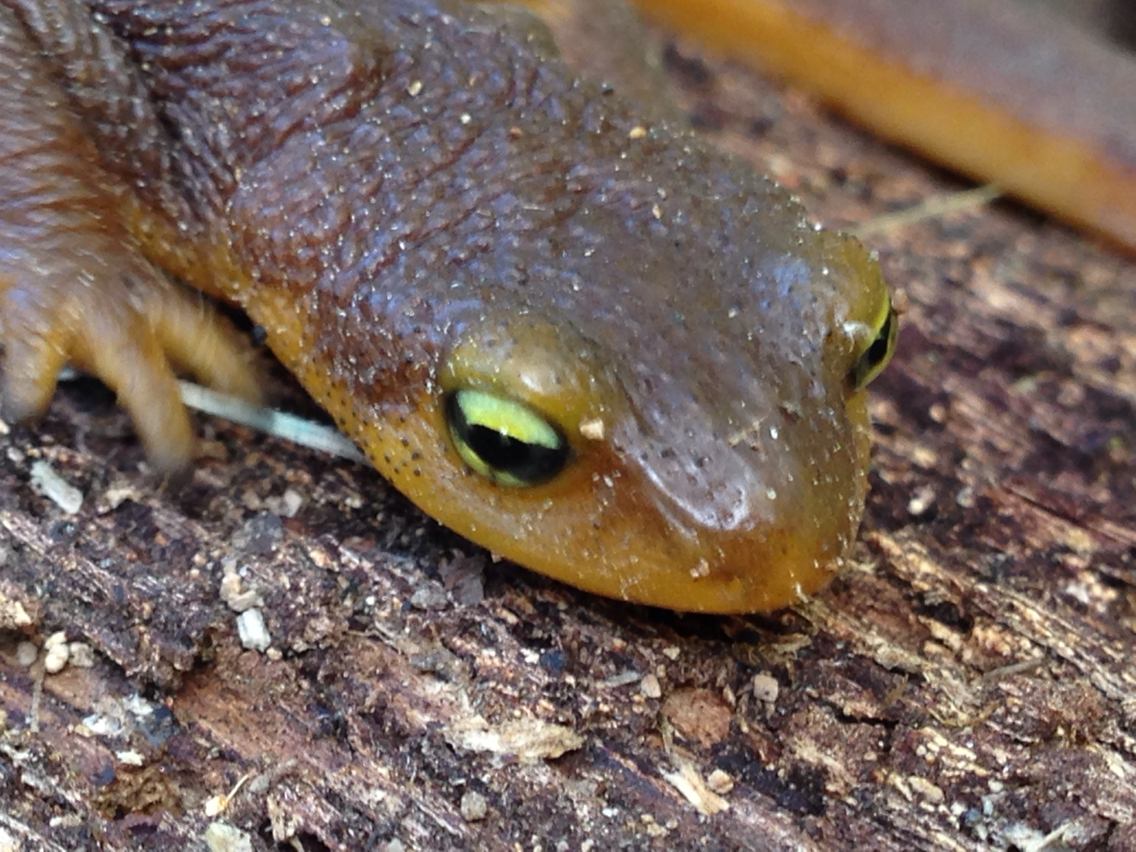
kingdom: Animalia
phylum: Chordata
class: Amphibia
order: Caudata
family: Salamandridae
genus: Taricha
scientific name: Taricha torosa
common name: California newt
